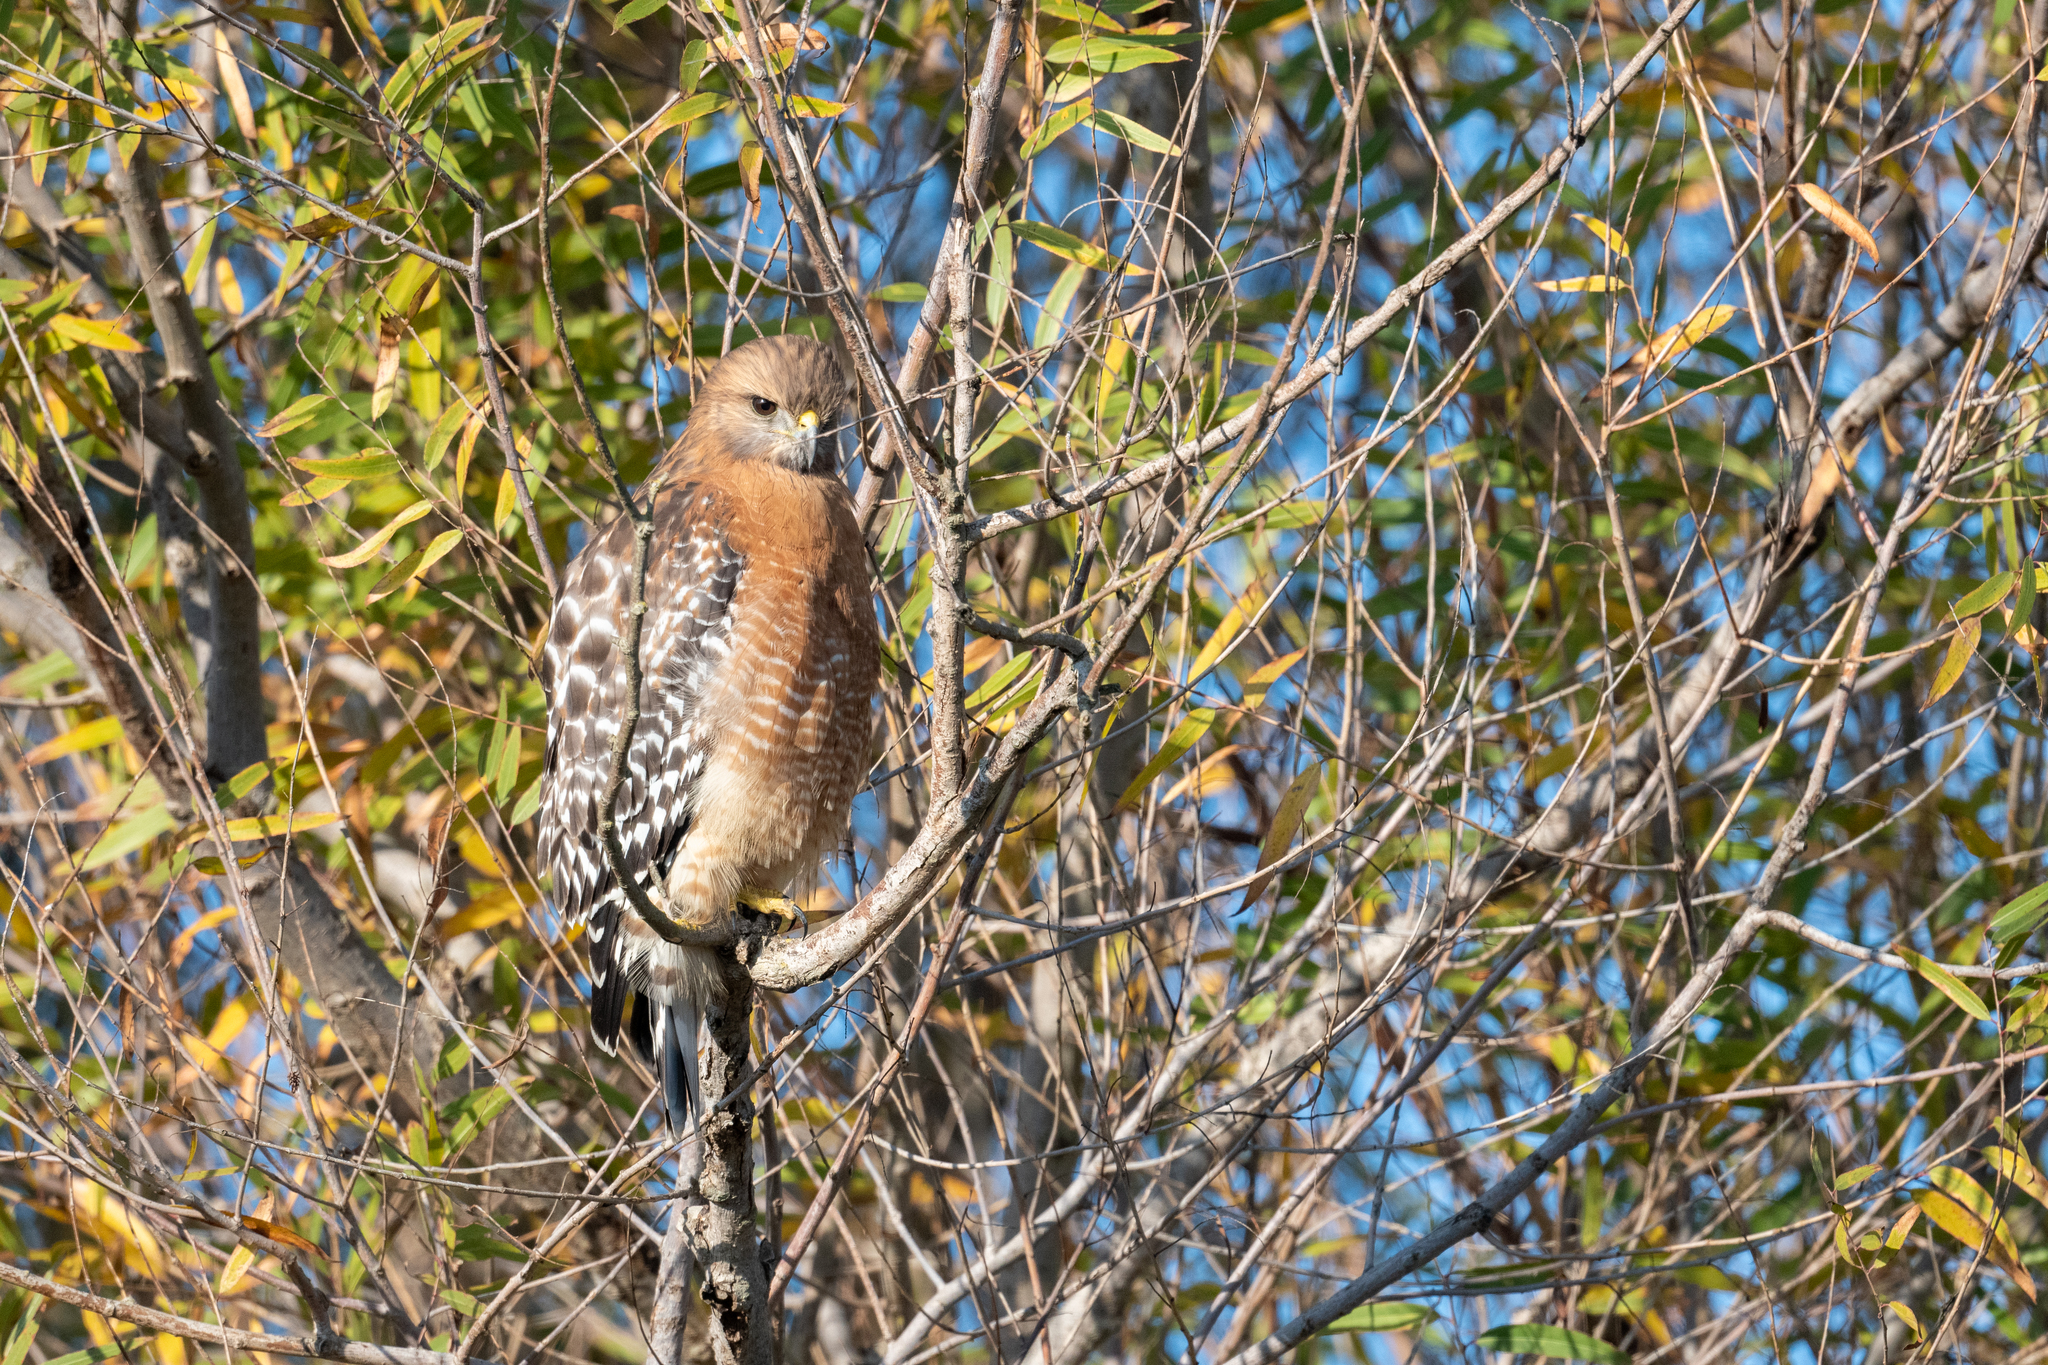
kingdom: Animalia
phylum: Chordata
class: Aves
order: Accipitriformes
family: Accipitridae
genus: Buteo
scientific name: Buteo lineatus
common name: Red-shouldered hawk
